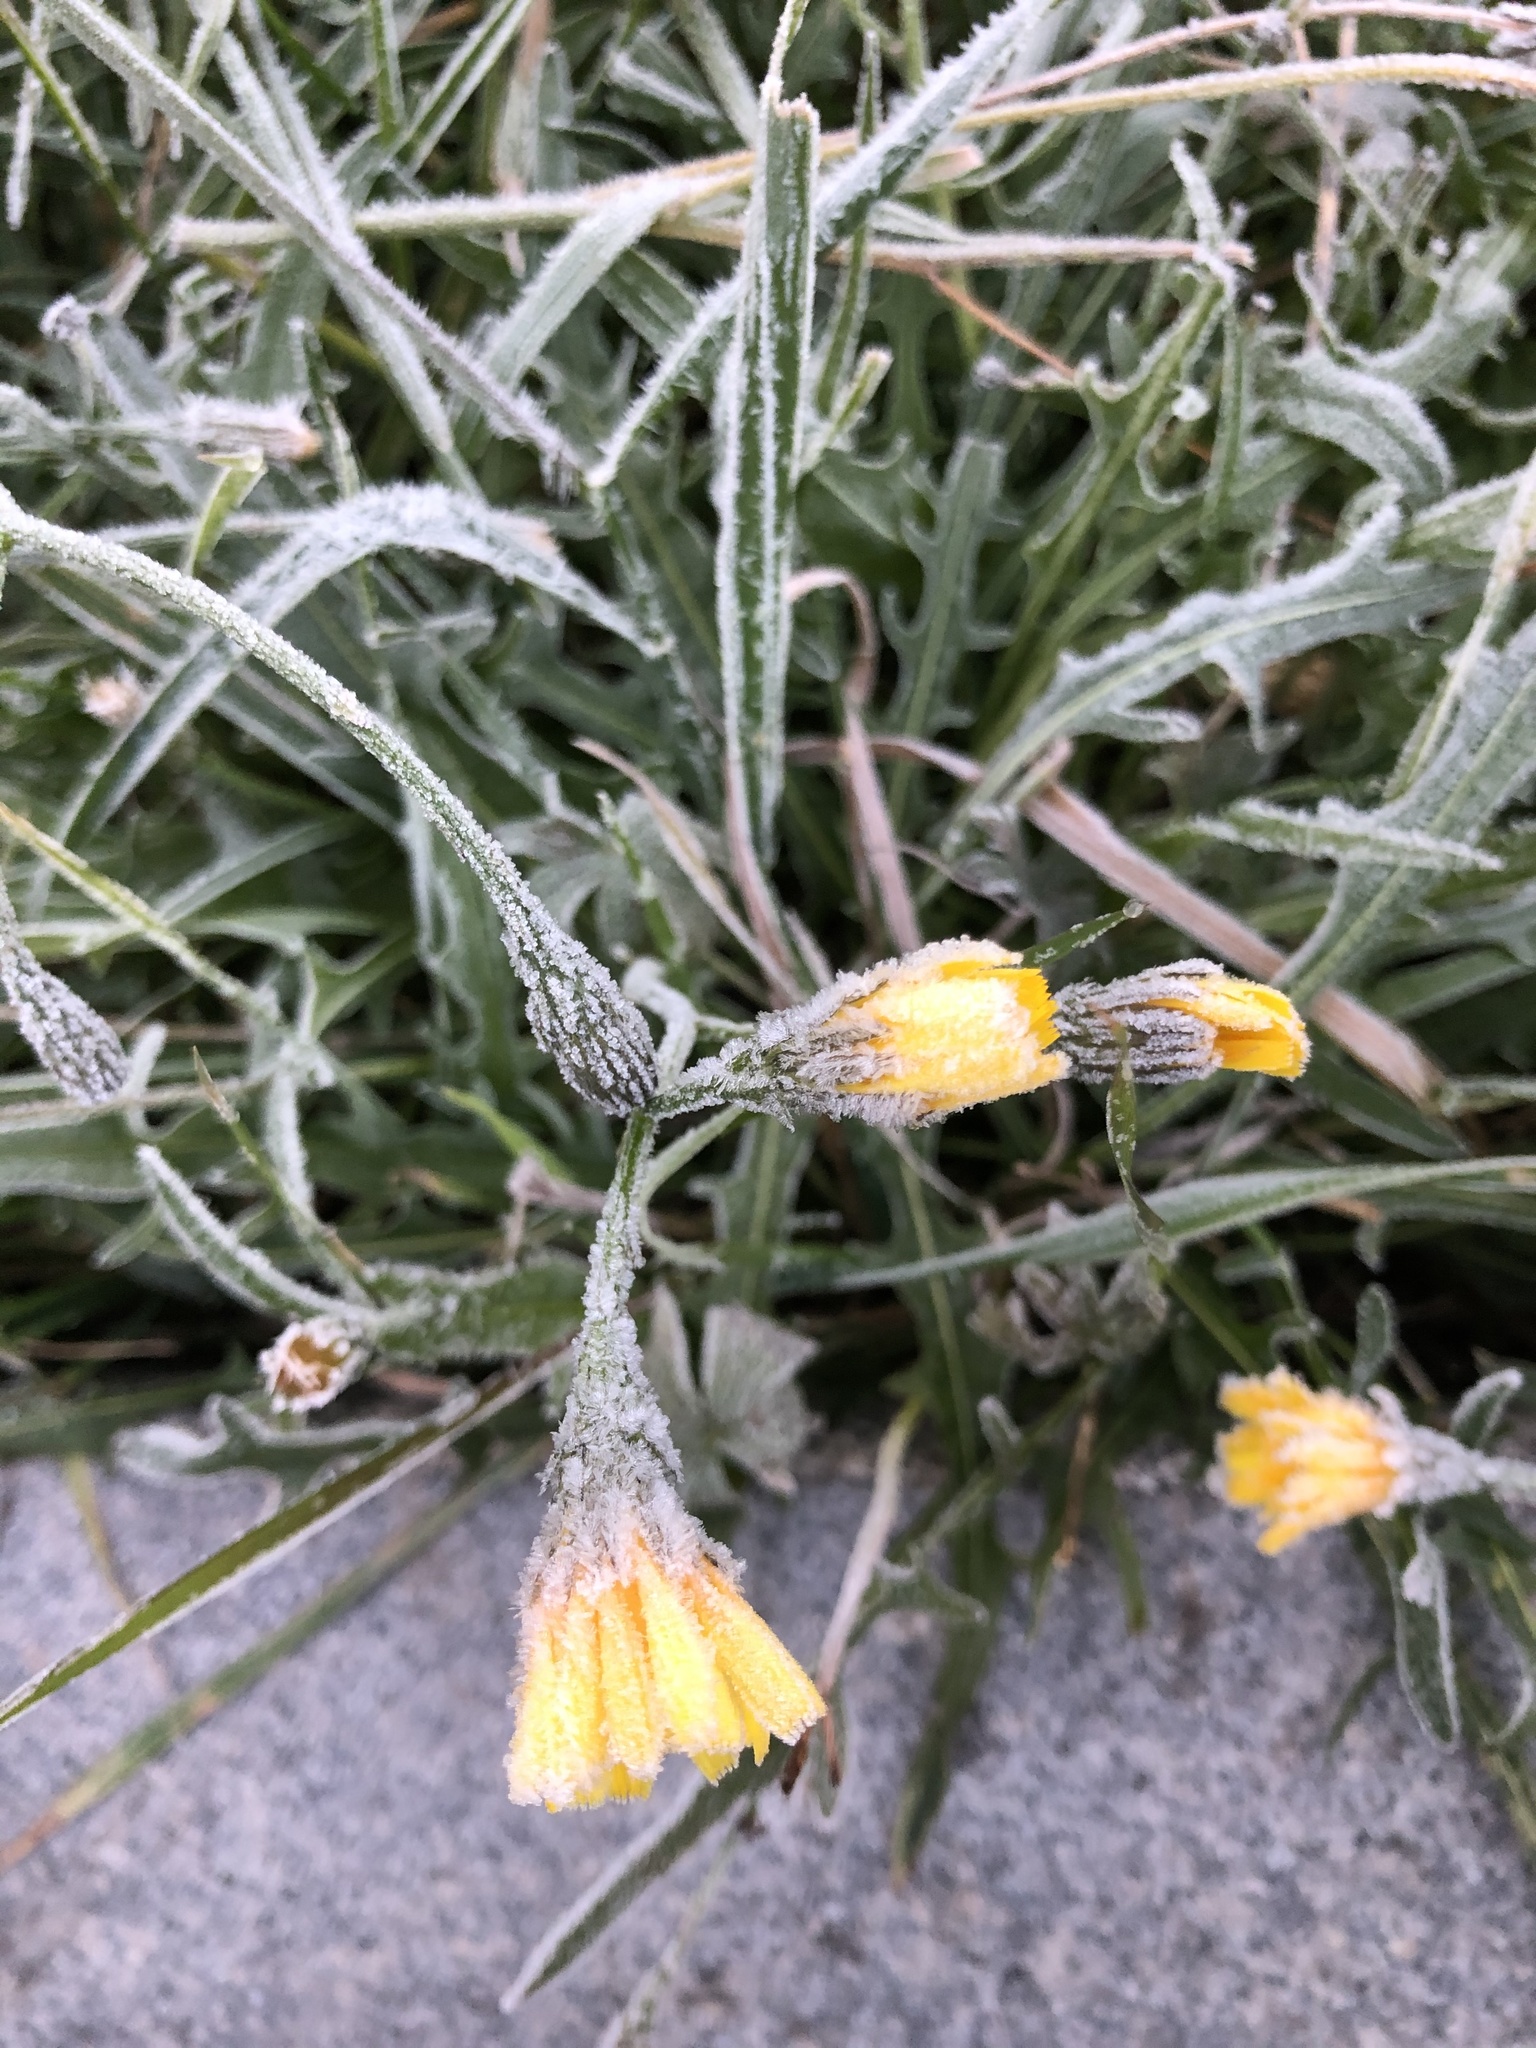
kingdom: Plantae
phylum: Tracheophyta
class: Magnoliopsida
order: Asterales
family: Asteraceae
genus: Scorzoneroides
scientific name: Scorzoneroides autumnalis
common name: Autumn hawkbit
